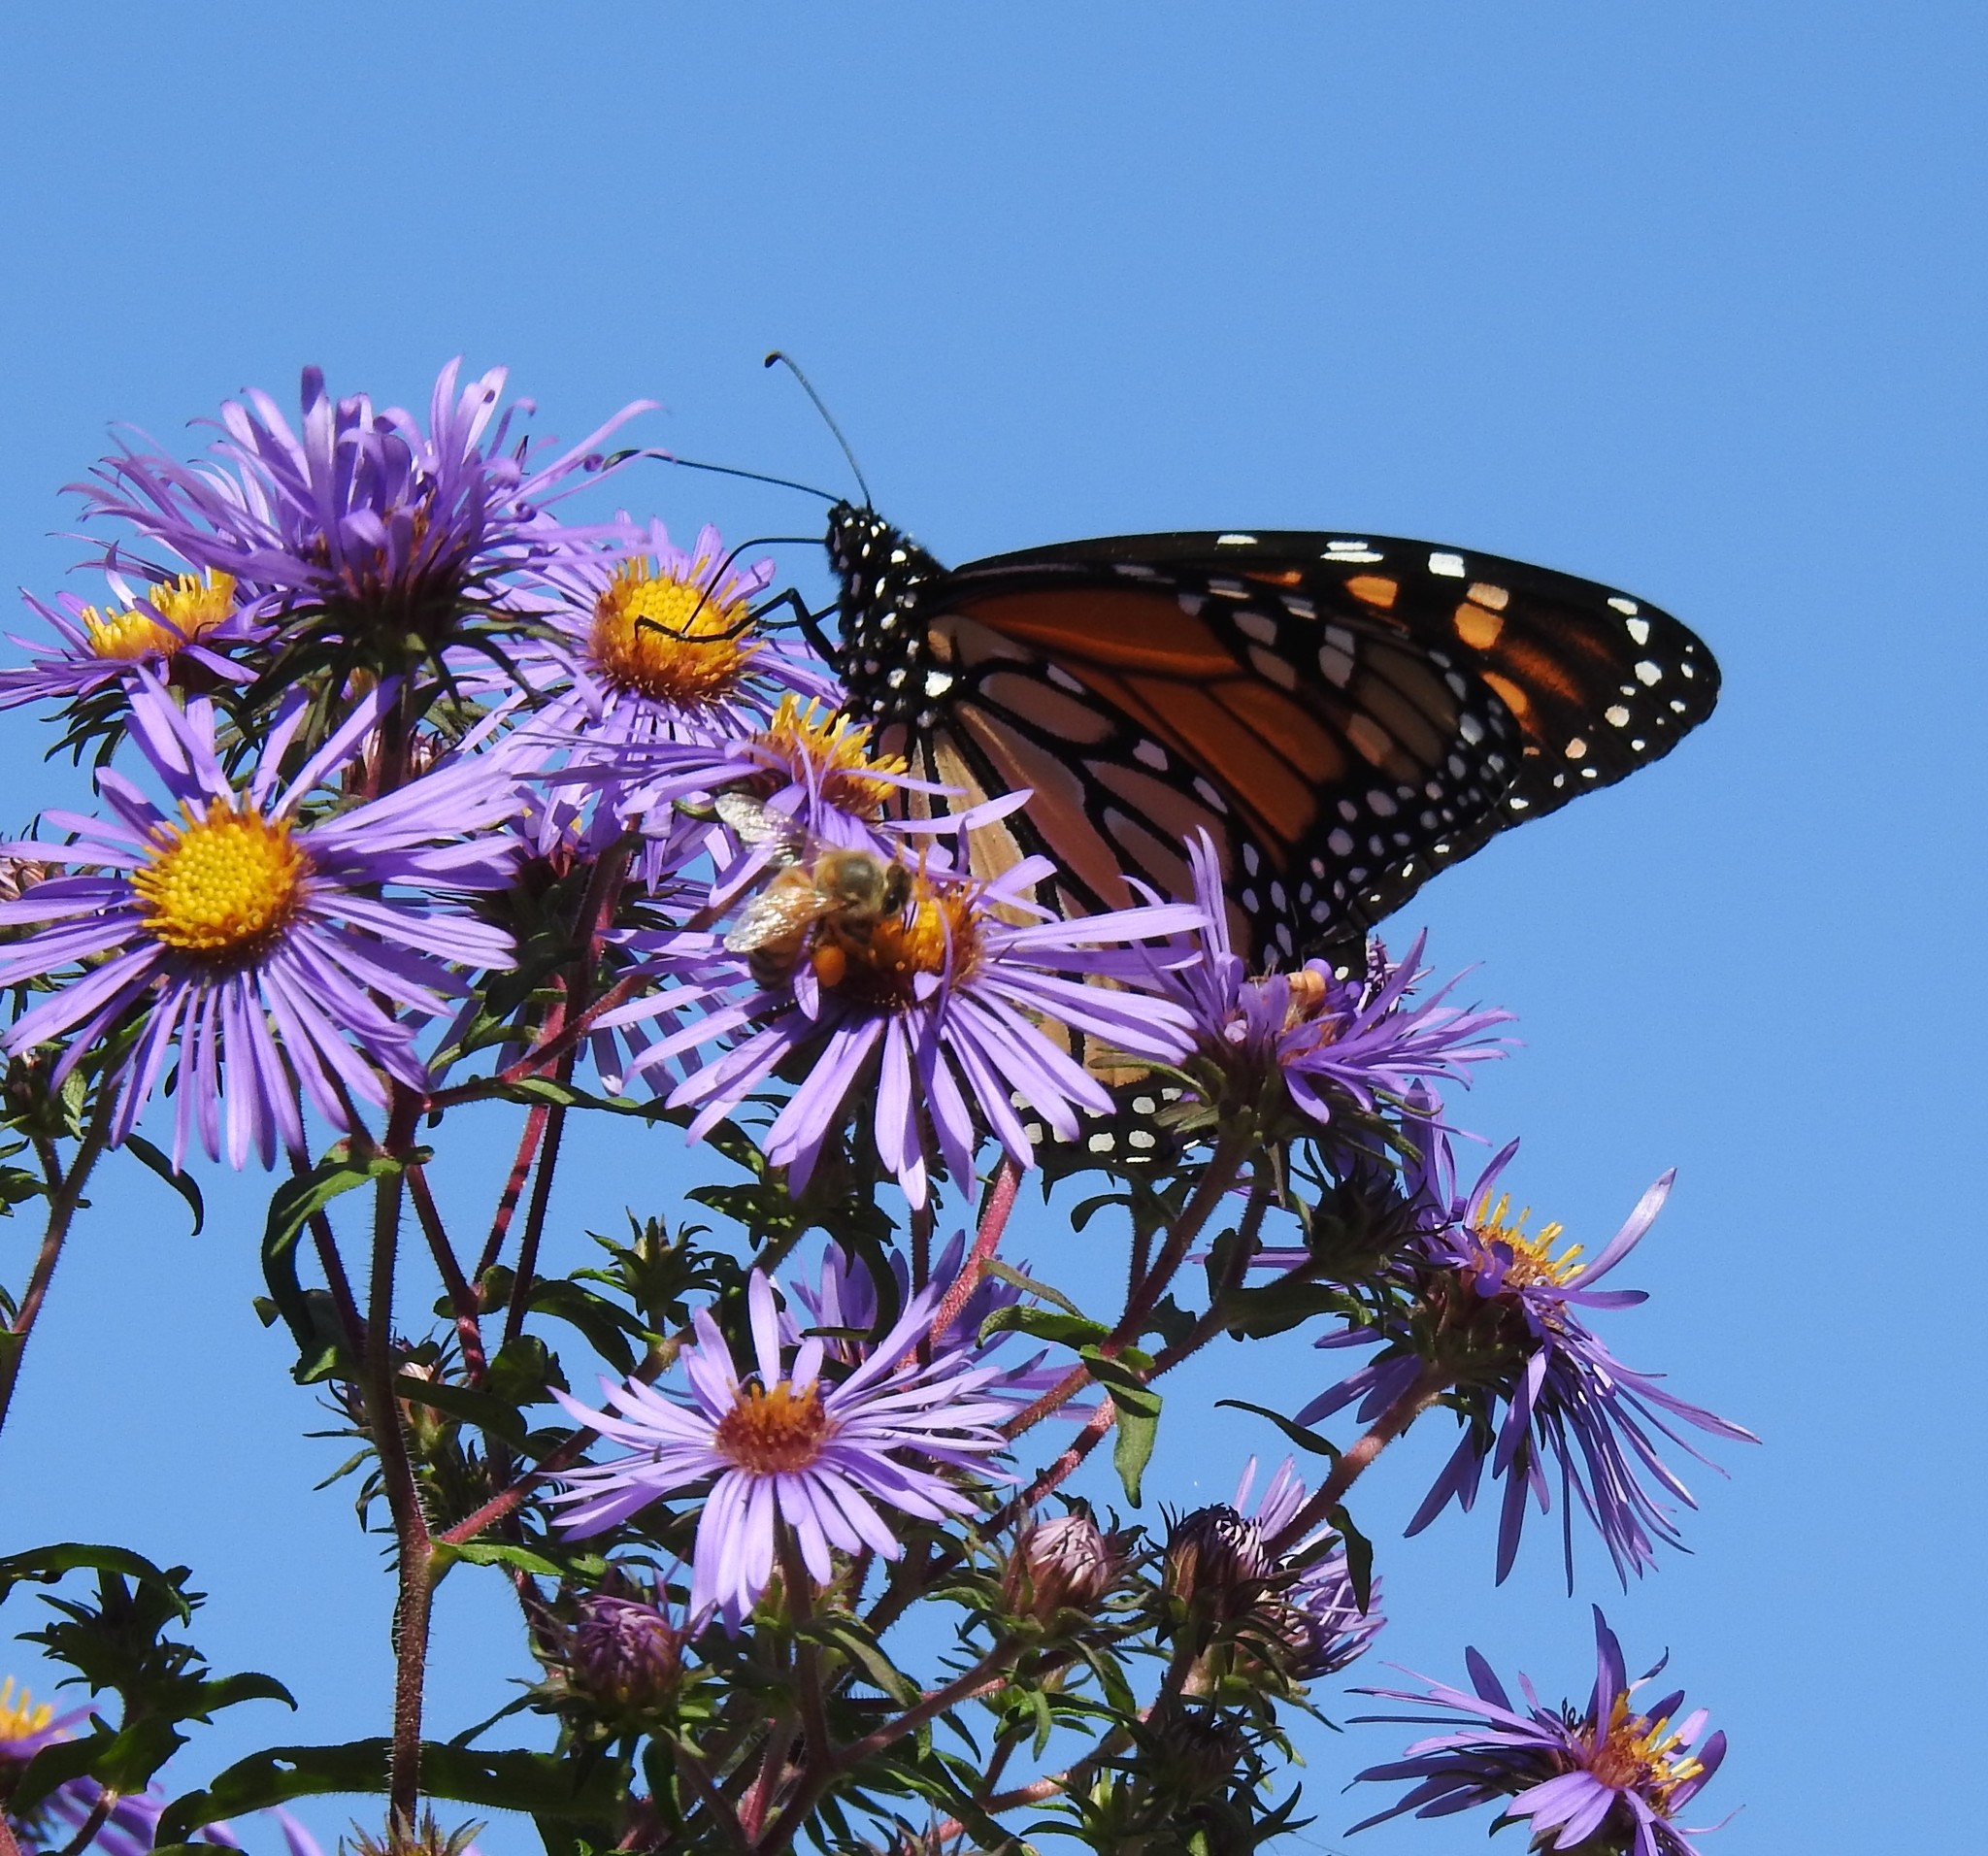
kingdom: Animalia
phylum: Arthropoda
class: Insecta
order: Lepidoptera
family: Nymphalidae
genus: Danaus
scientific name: Danaus plexippus
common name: Monarch
